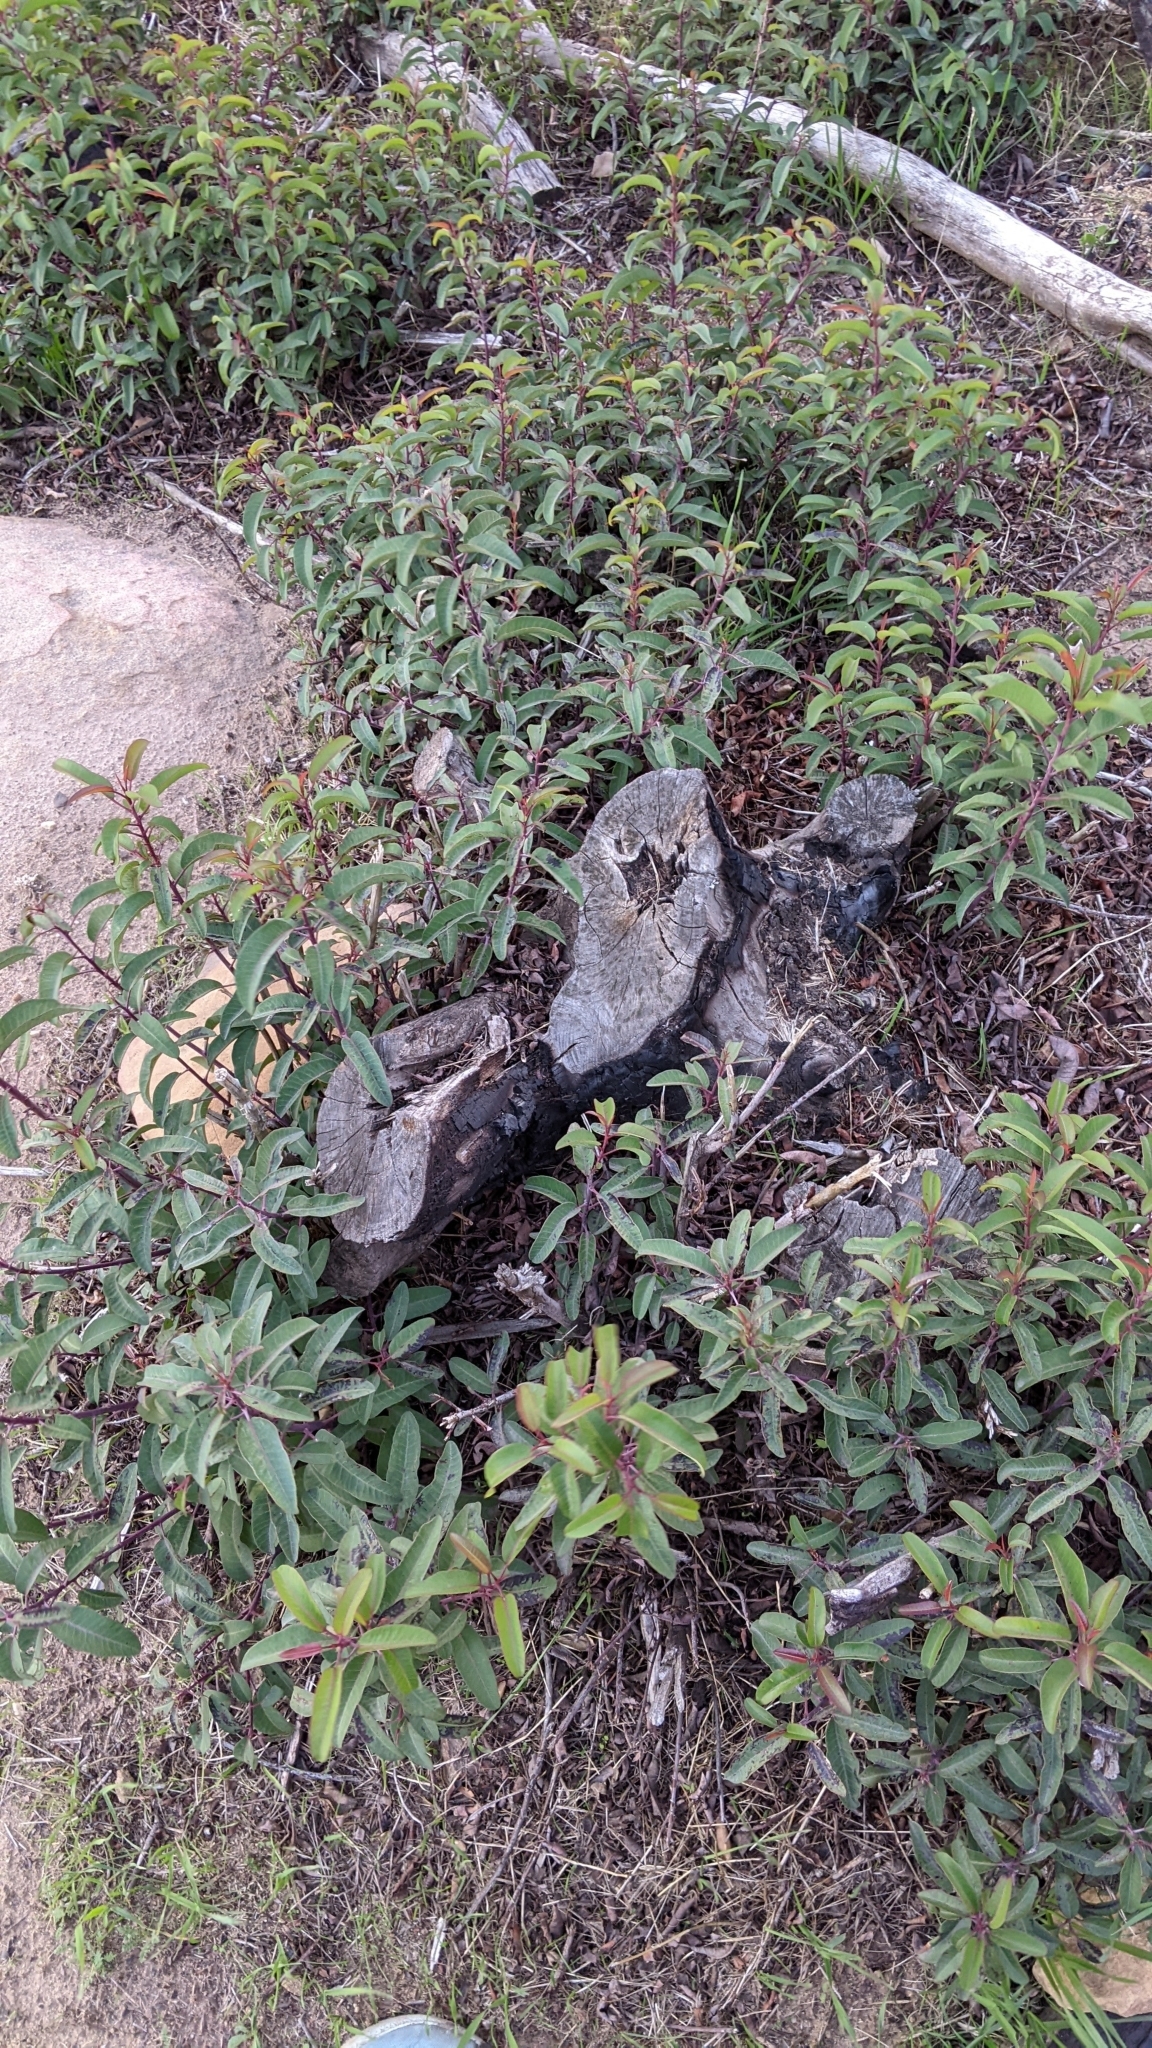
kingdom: Plantae
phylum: Tracheophyta
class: Magnoliopsida
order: Sapindales
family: Anacardiaceae
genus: Malosma
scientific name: Malosma laurina
